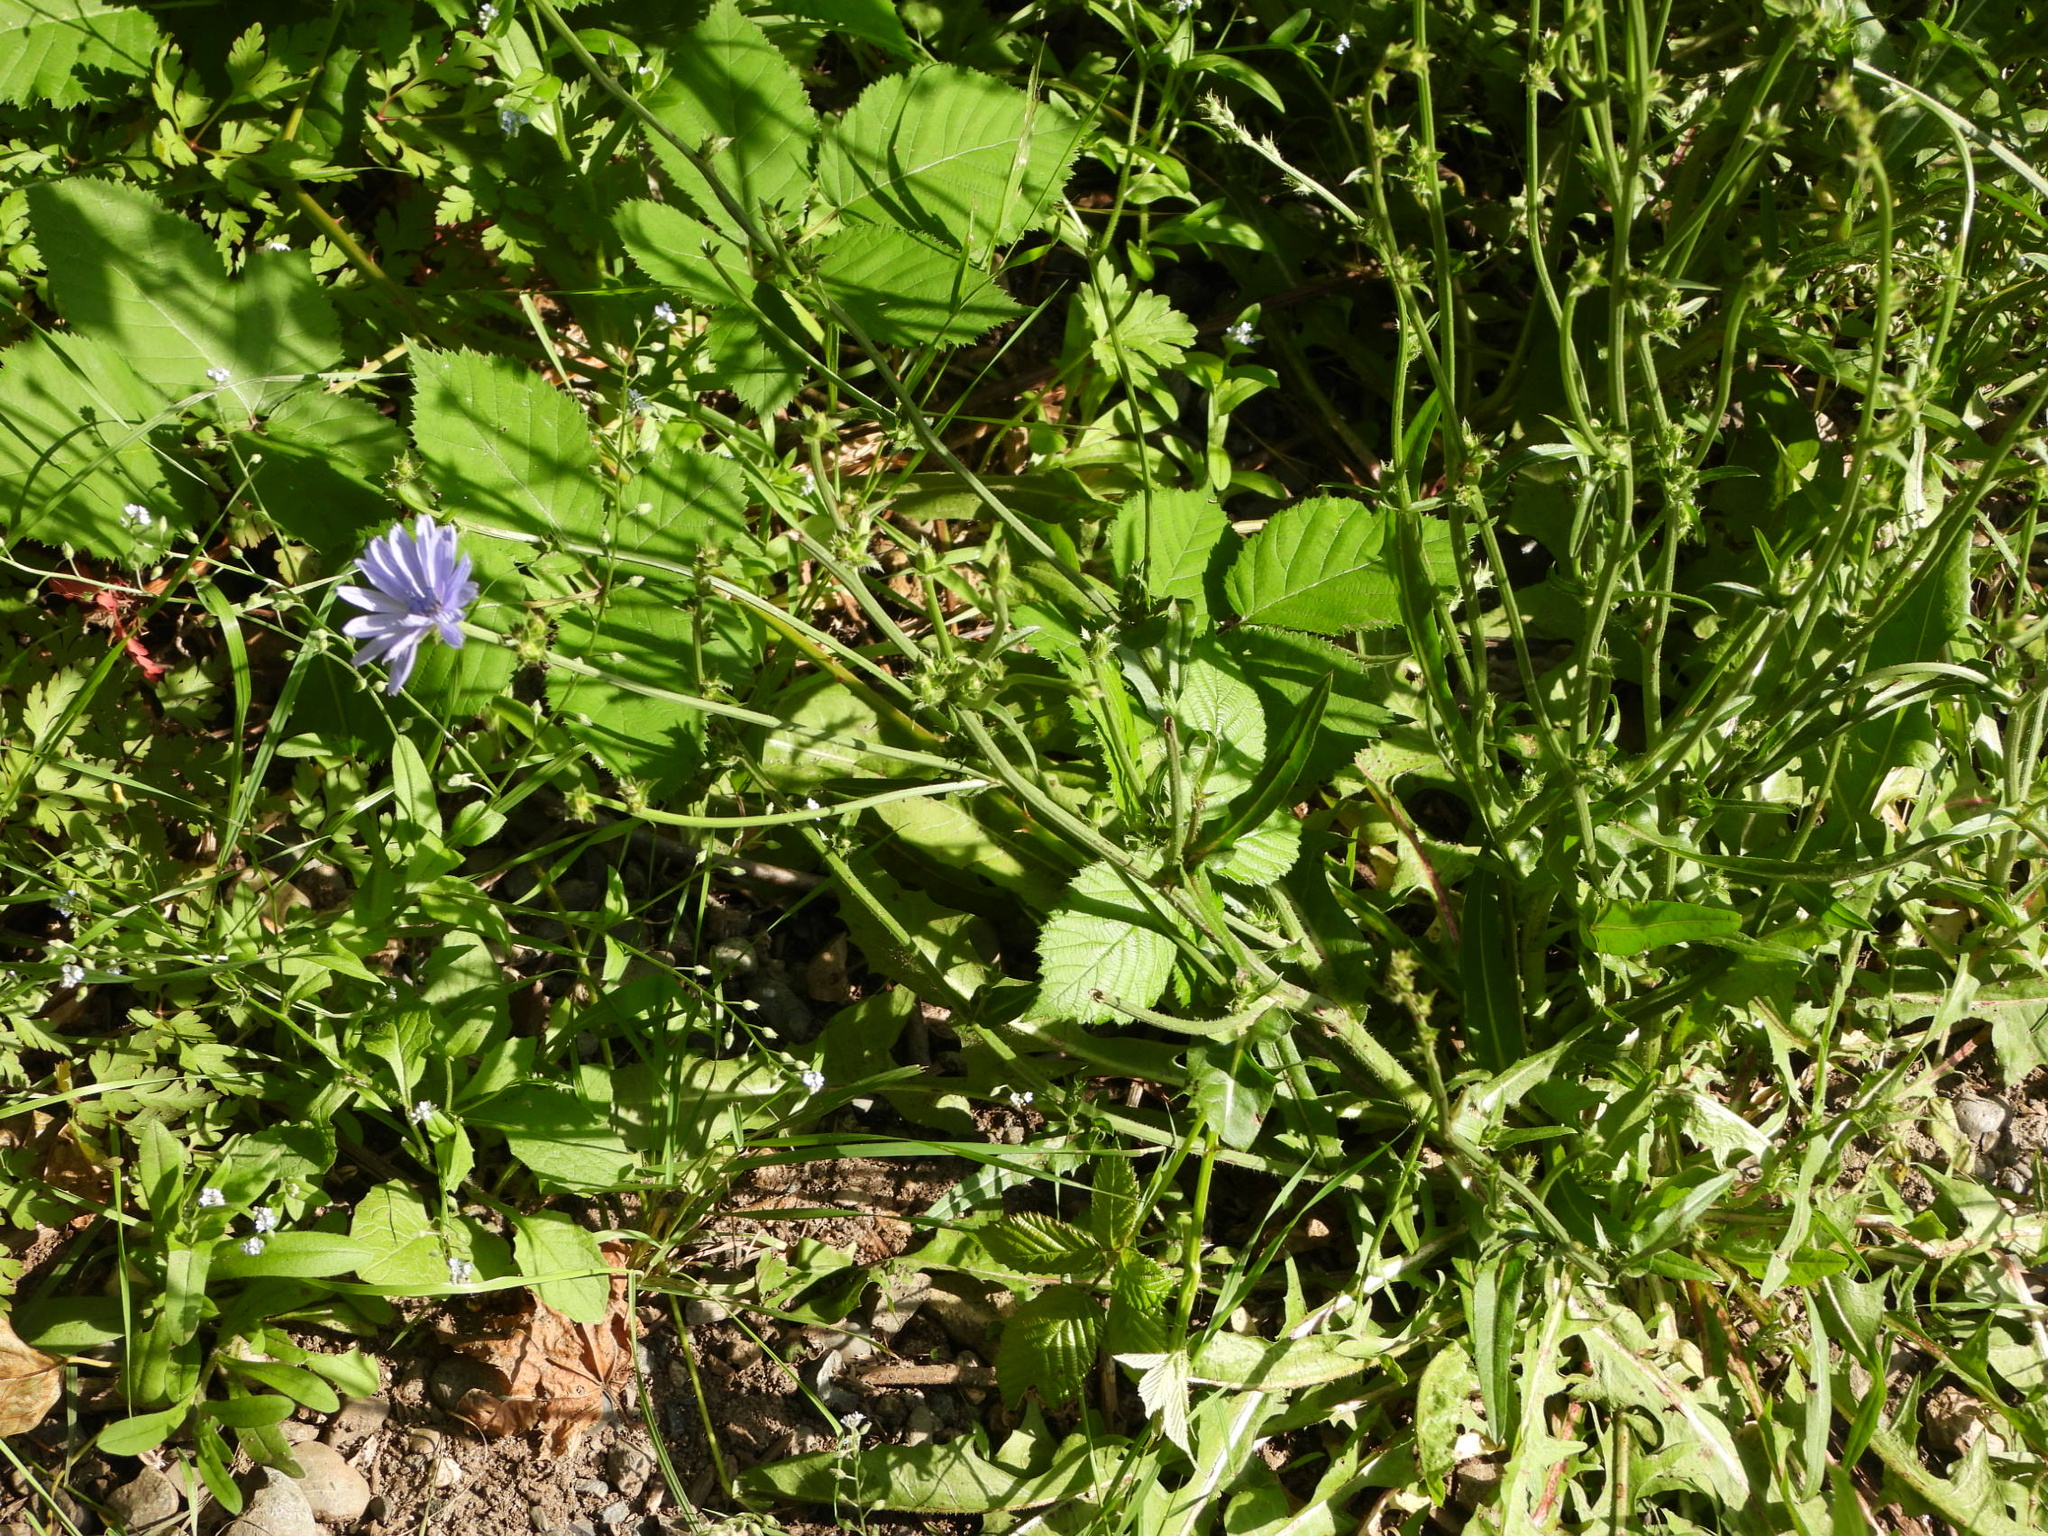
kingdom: Plantae
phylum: Tracheophyta
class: Magnoliopsida
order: Asterales
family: Asteraceae
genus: Cichorium
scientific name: Cichorium intybus
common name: Chicory
